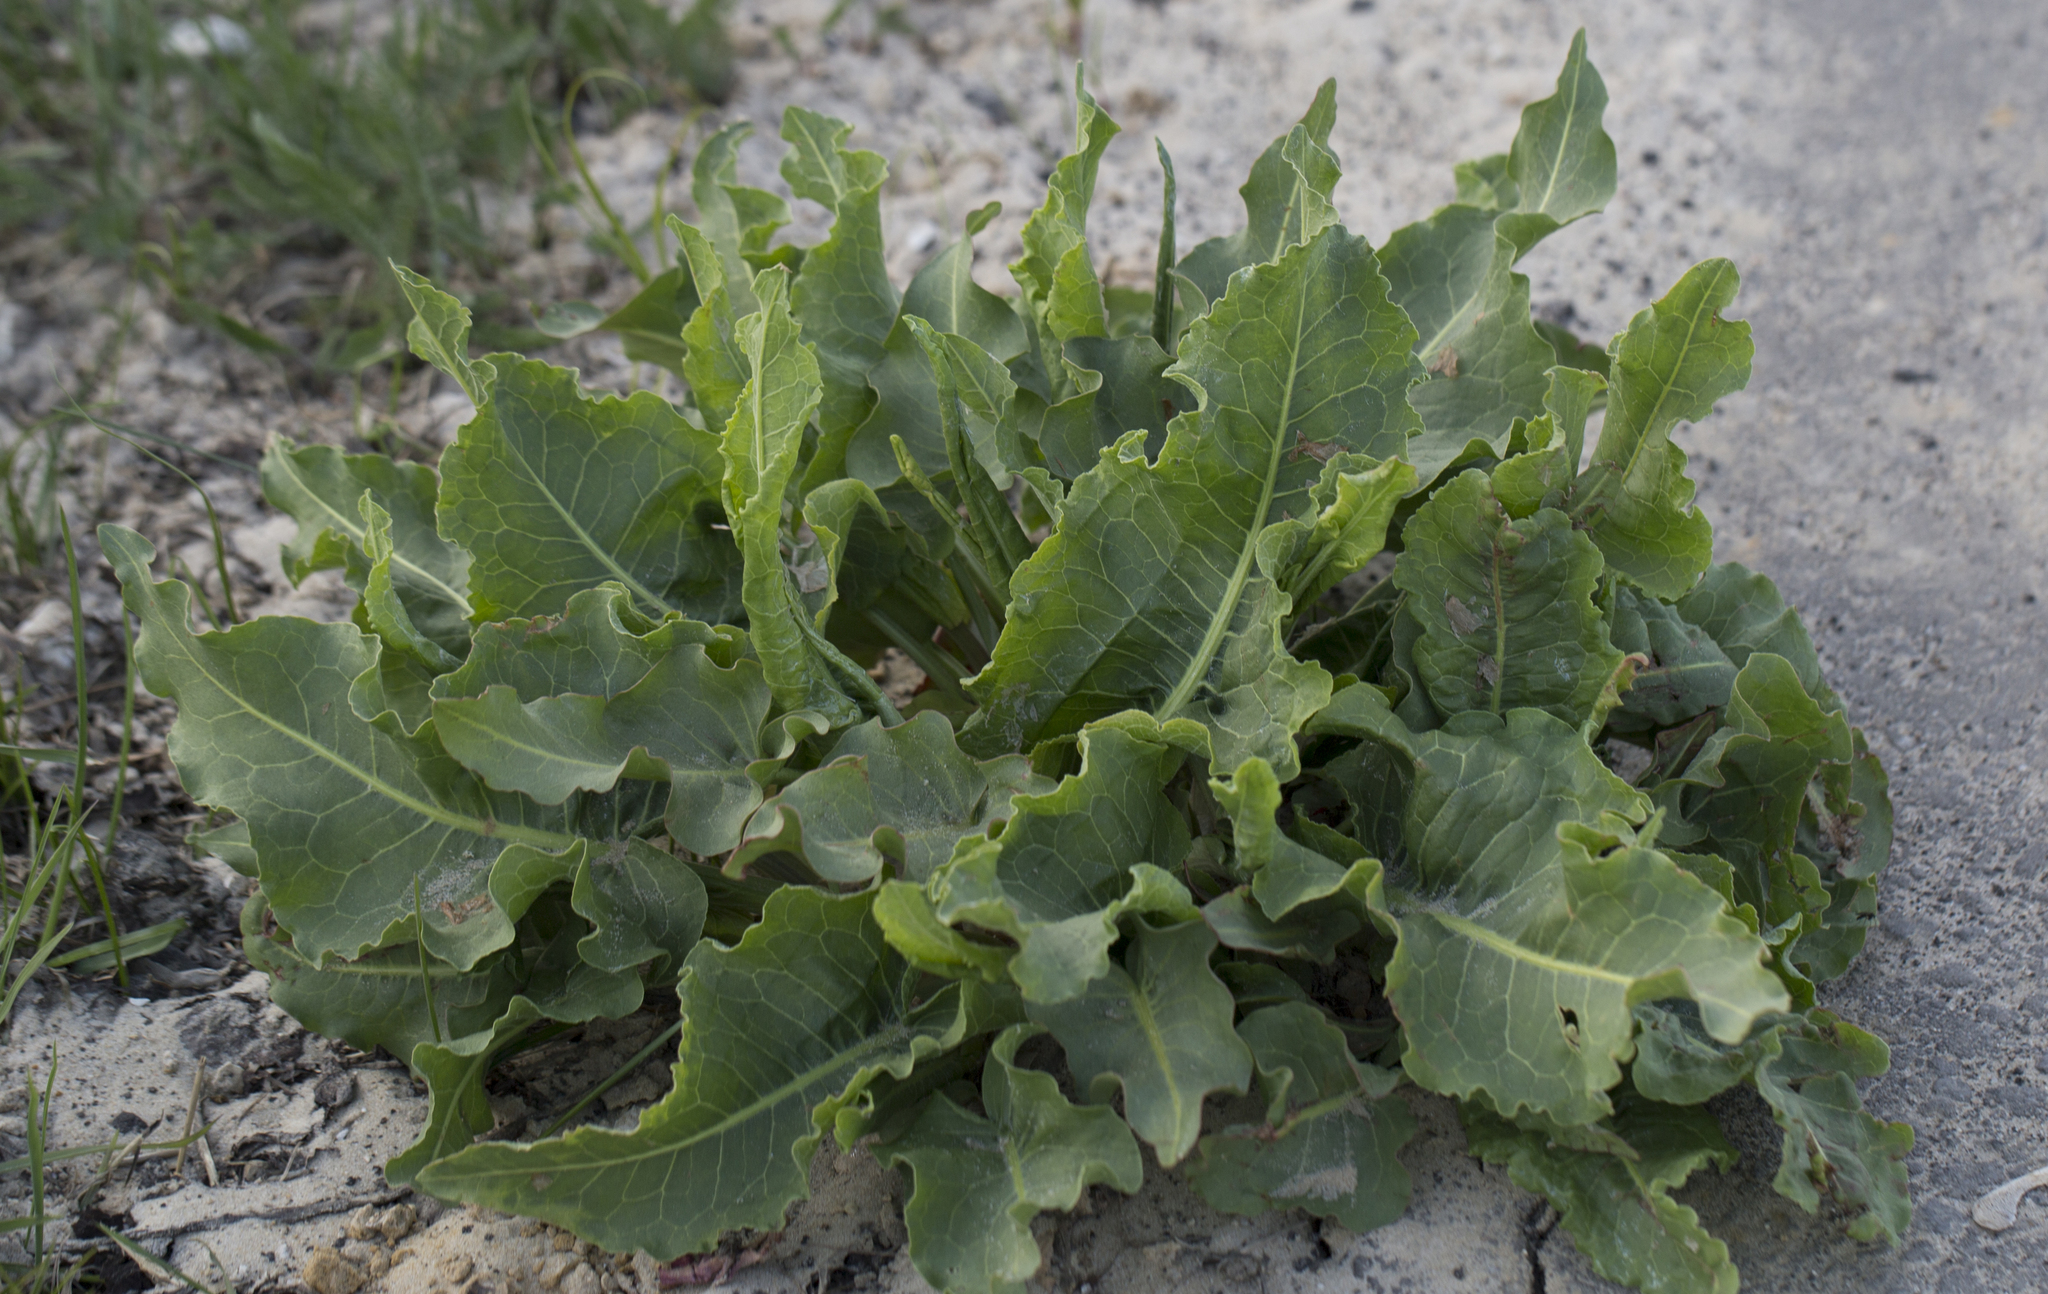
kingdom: Plantae
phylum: Tracheophyta
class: Magnoliopsida
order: Caryophyllales
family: Polygonaceae
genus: Rumex
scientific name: Rumex confertus
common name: Russian dock
